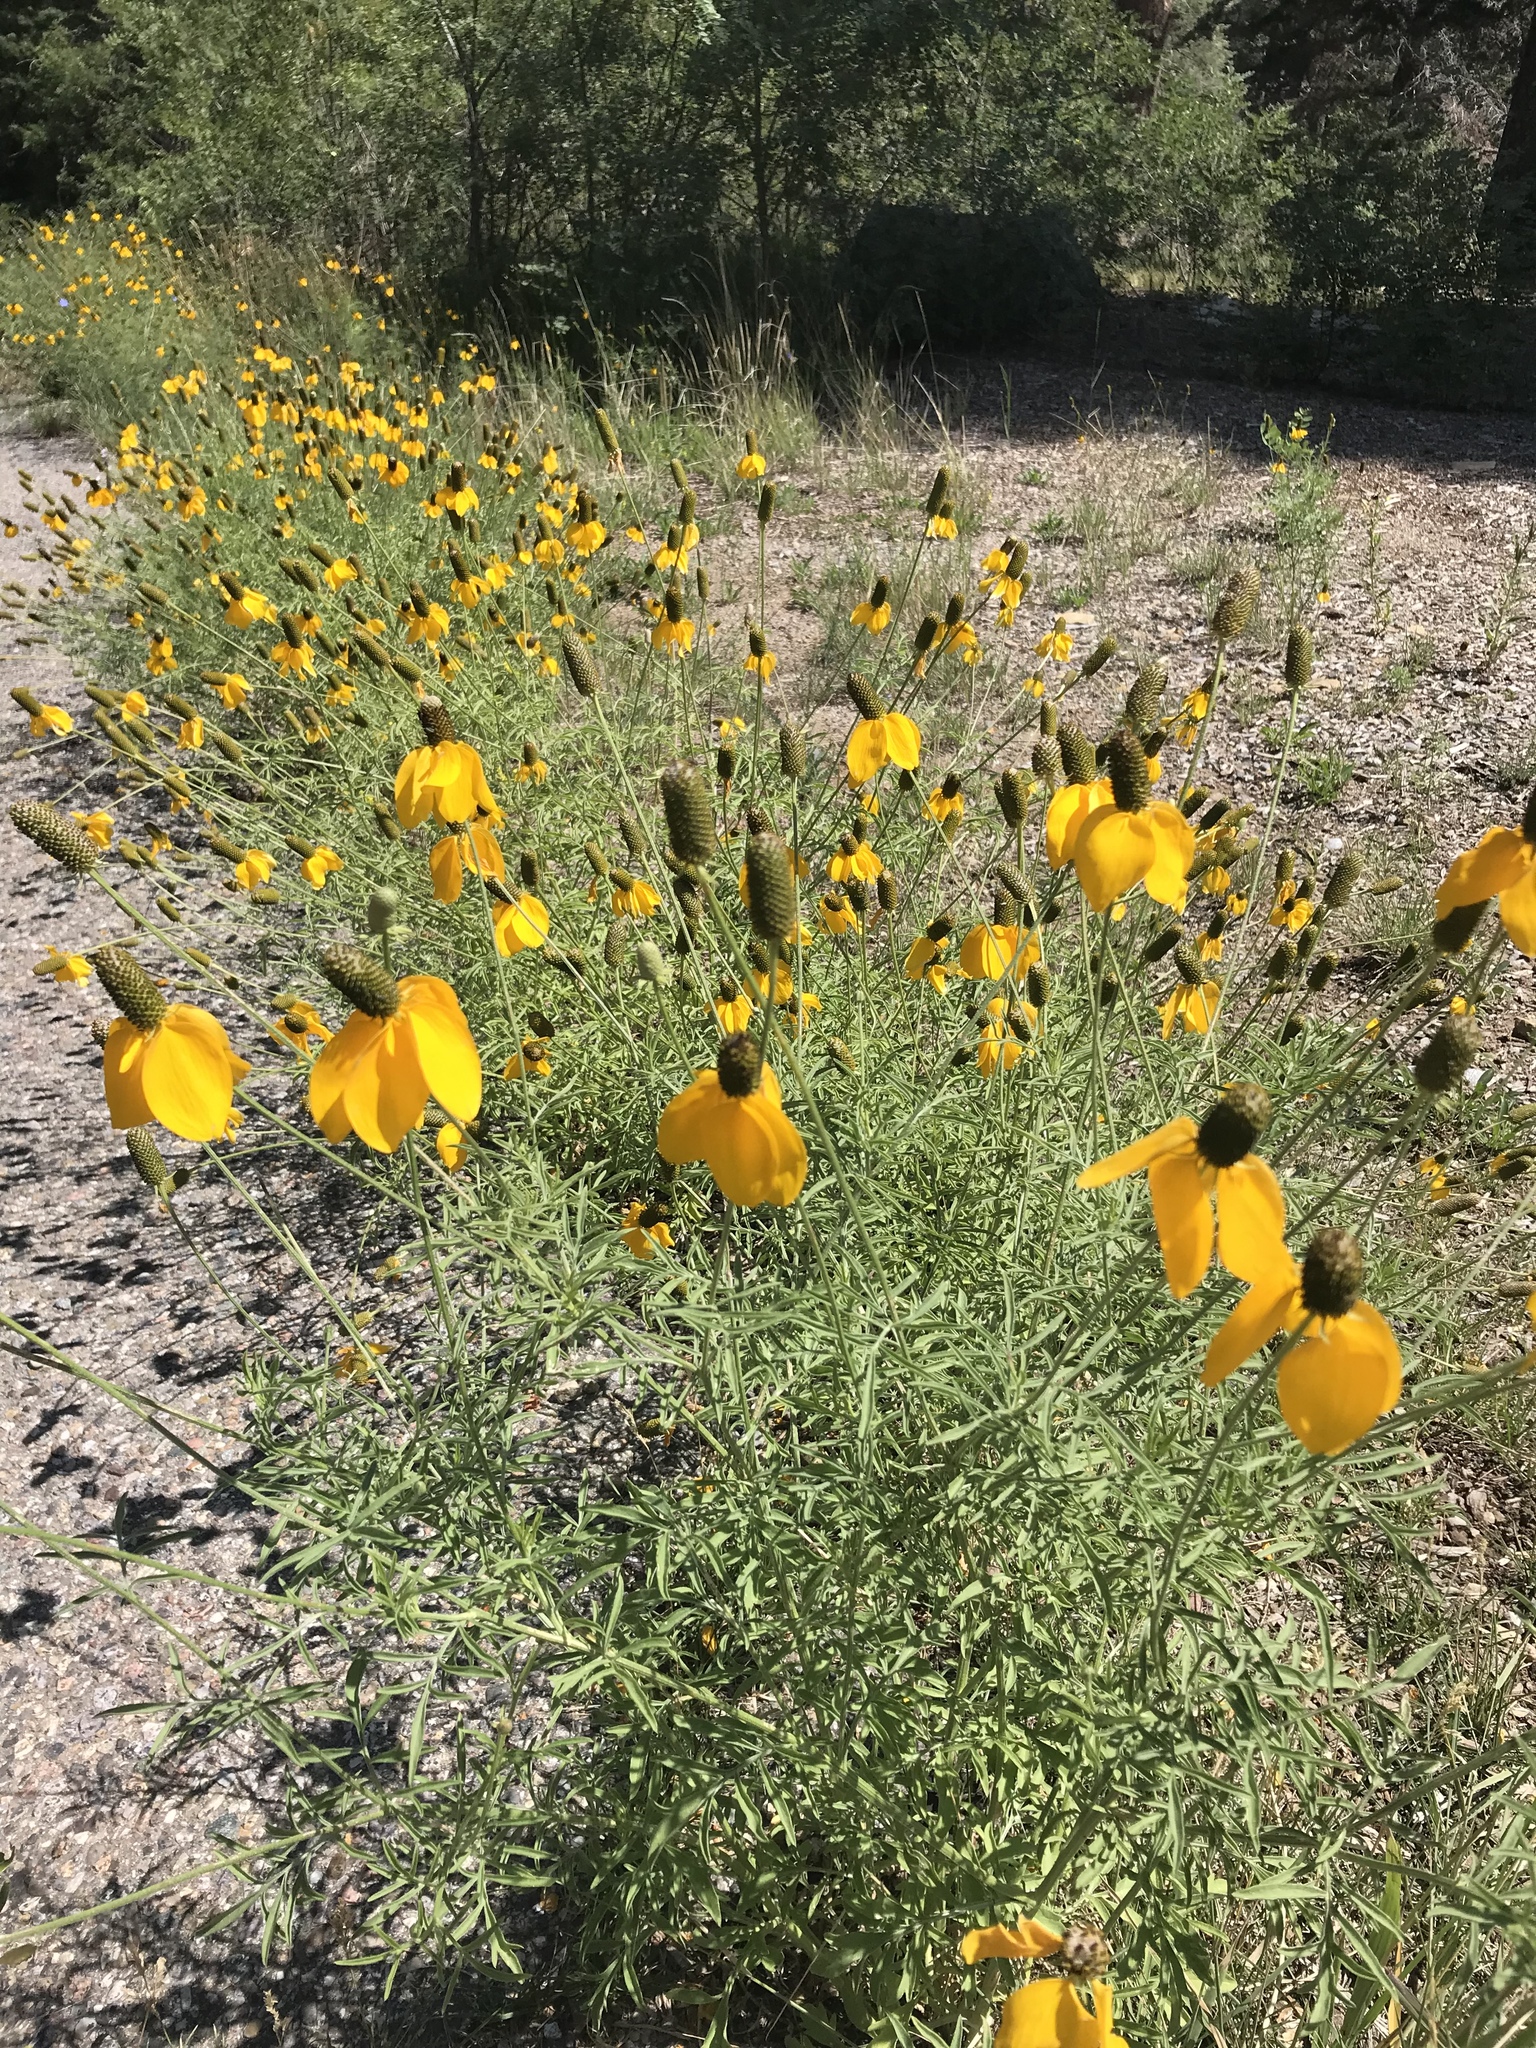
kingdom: Plantae
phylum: Tracheophyta
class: Magnoliopsida
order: Asterales
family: Asteraceae
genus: Ratibida
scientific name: Ratibida columnifera
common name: Prairie coneflower
